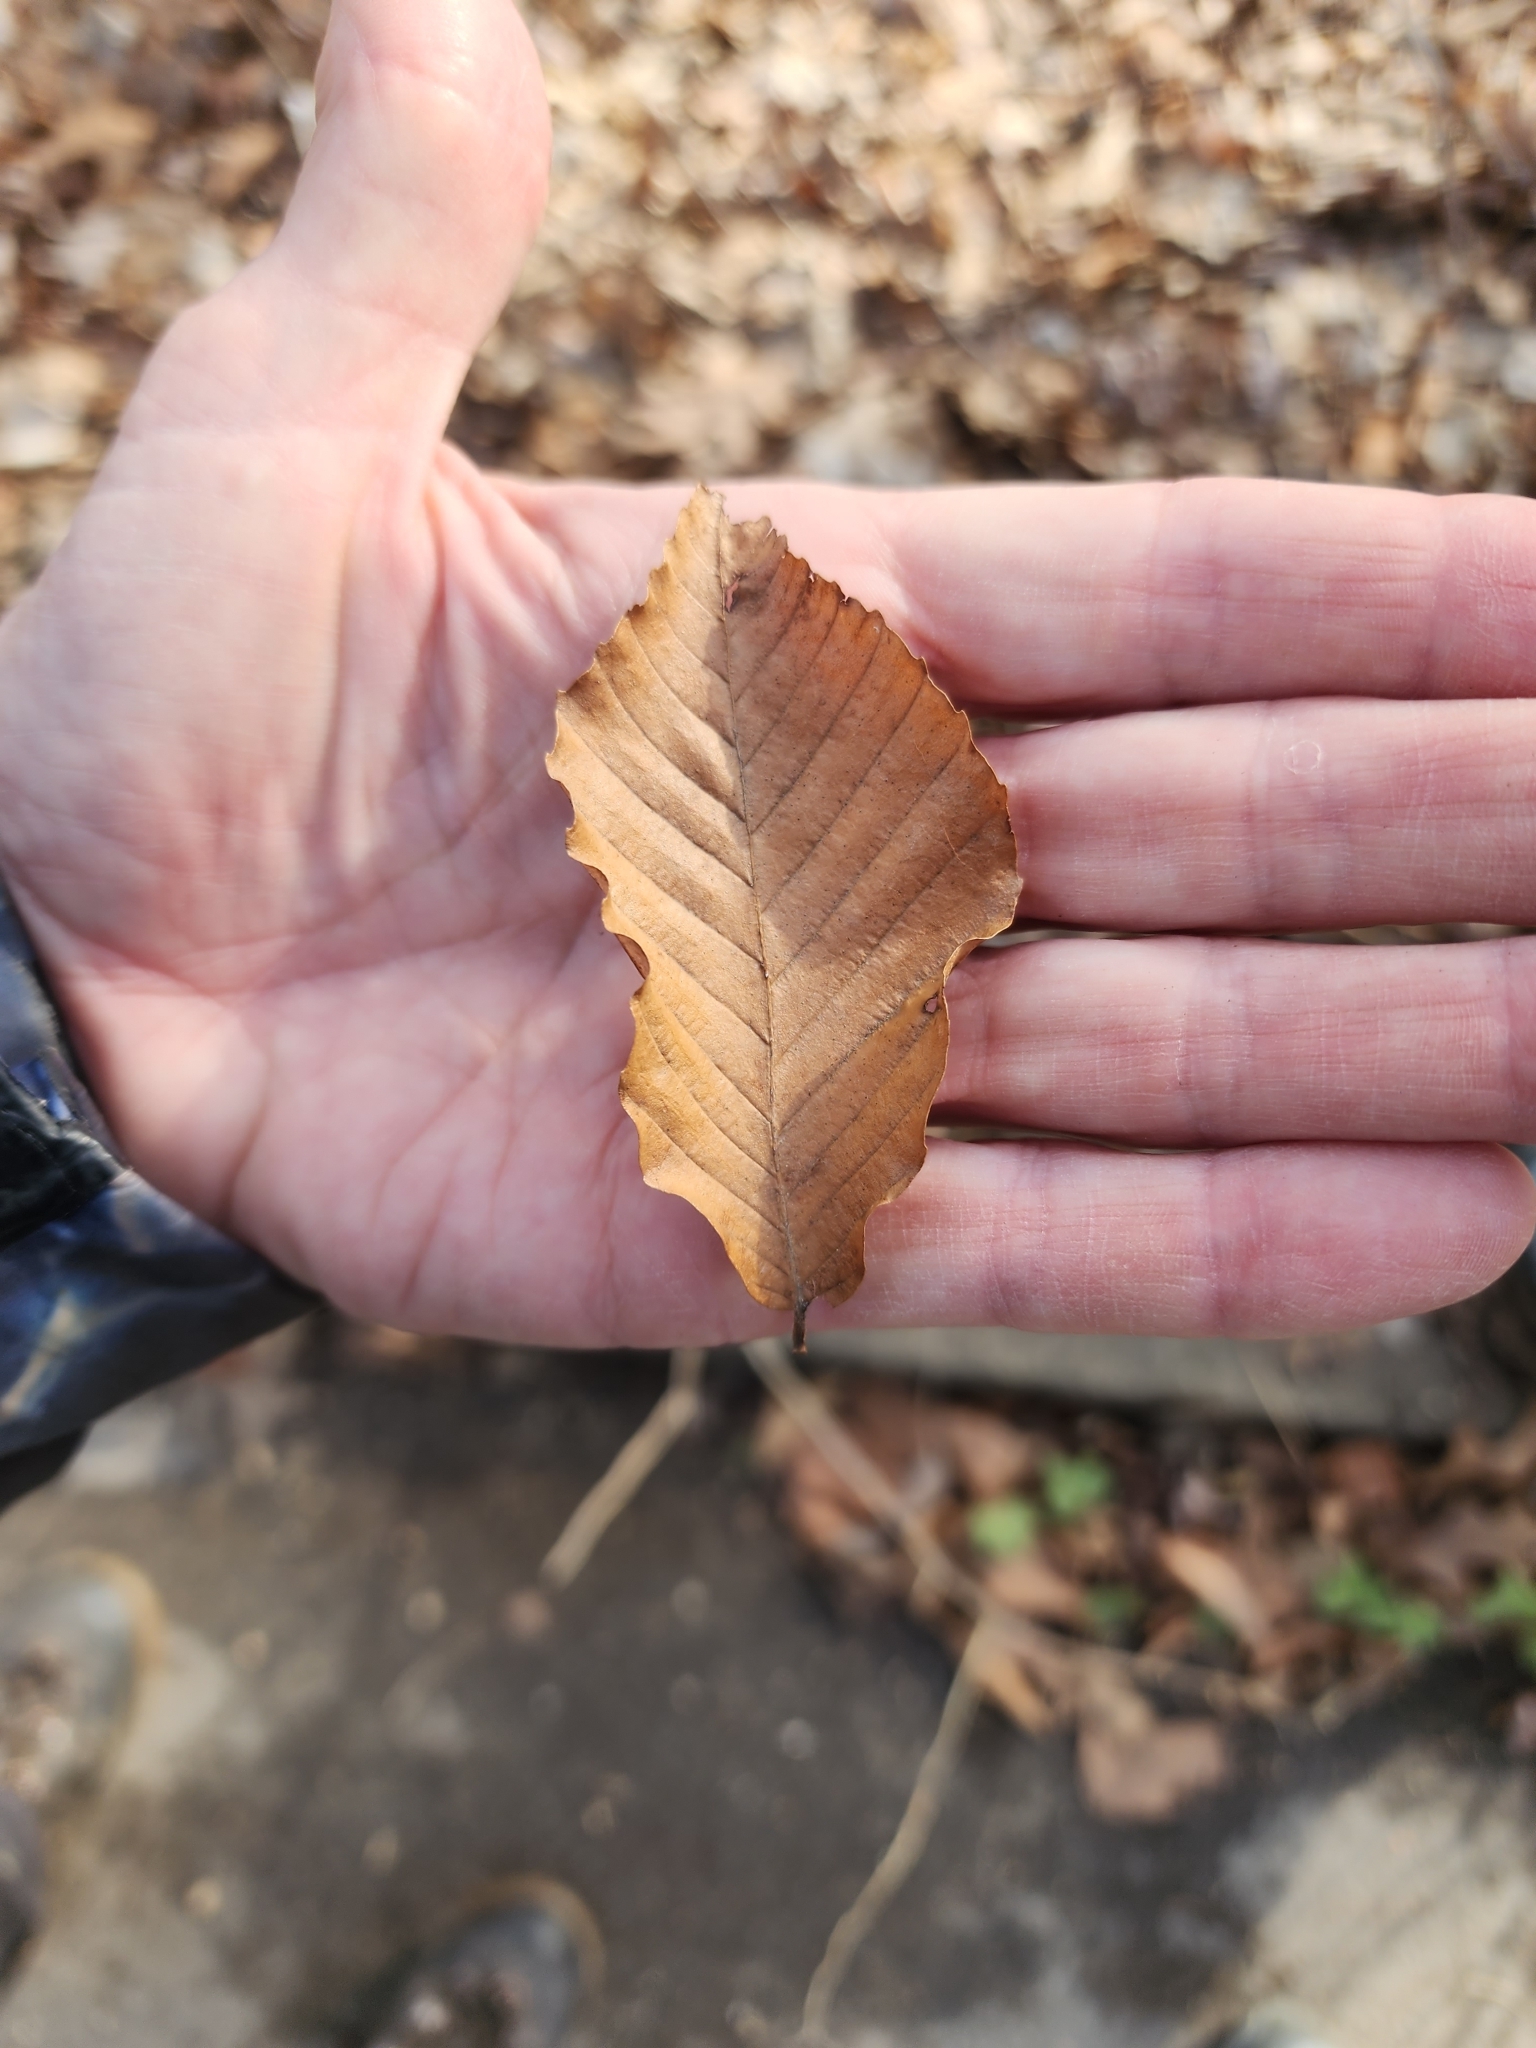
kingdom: Plantae
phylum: Tracheophyta
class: Magnoliopsida
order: Fagales
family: Fagaceae
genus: Fagus
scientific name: Fagus grandifolia
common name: American beech
